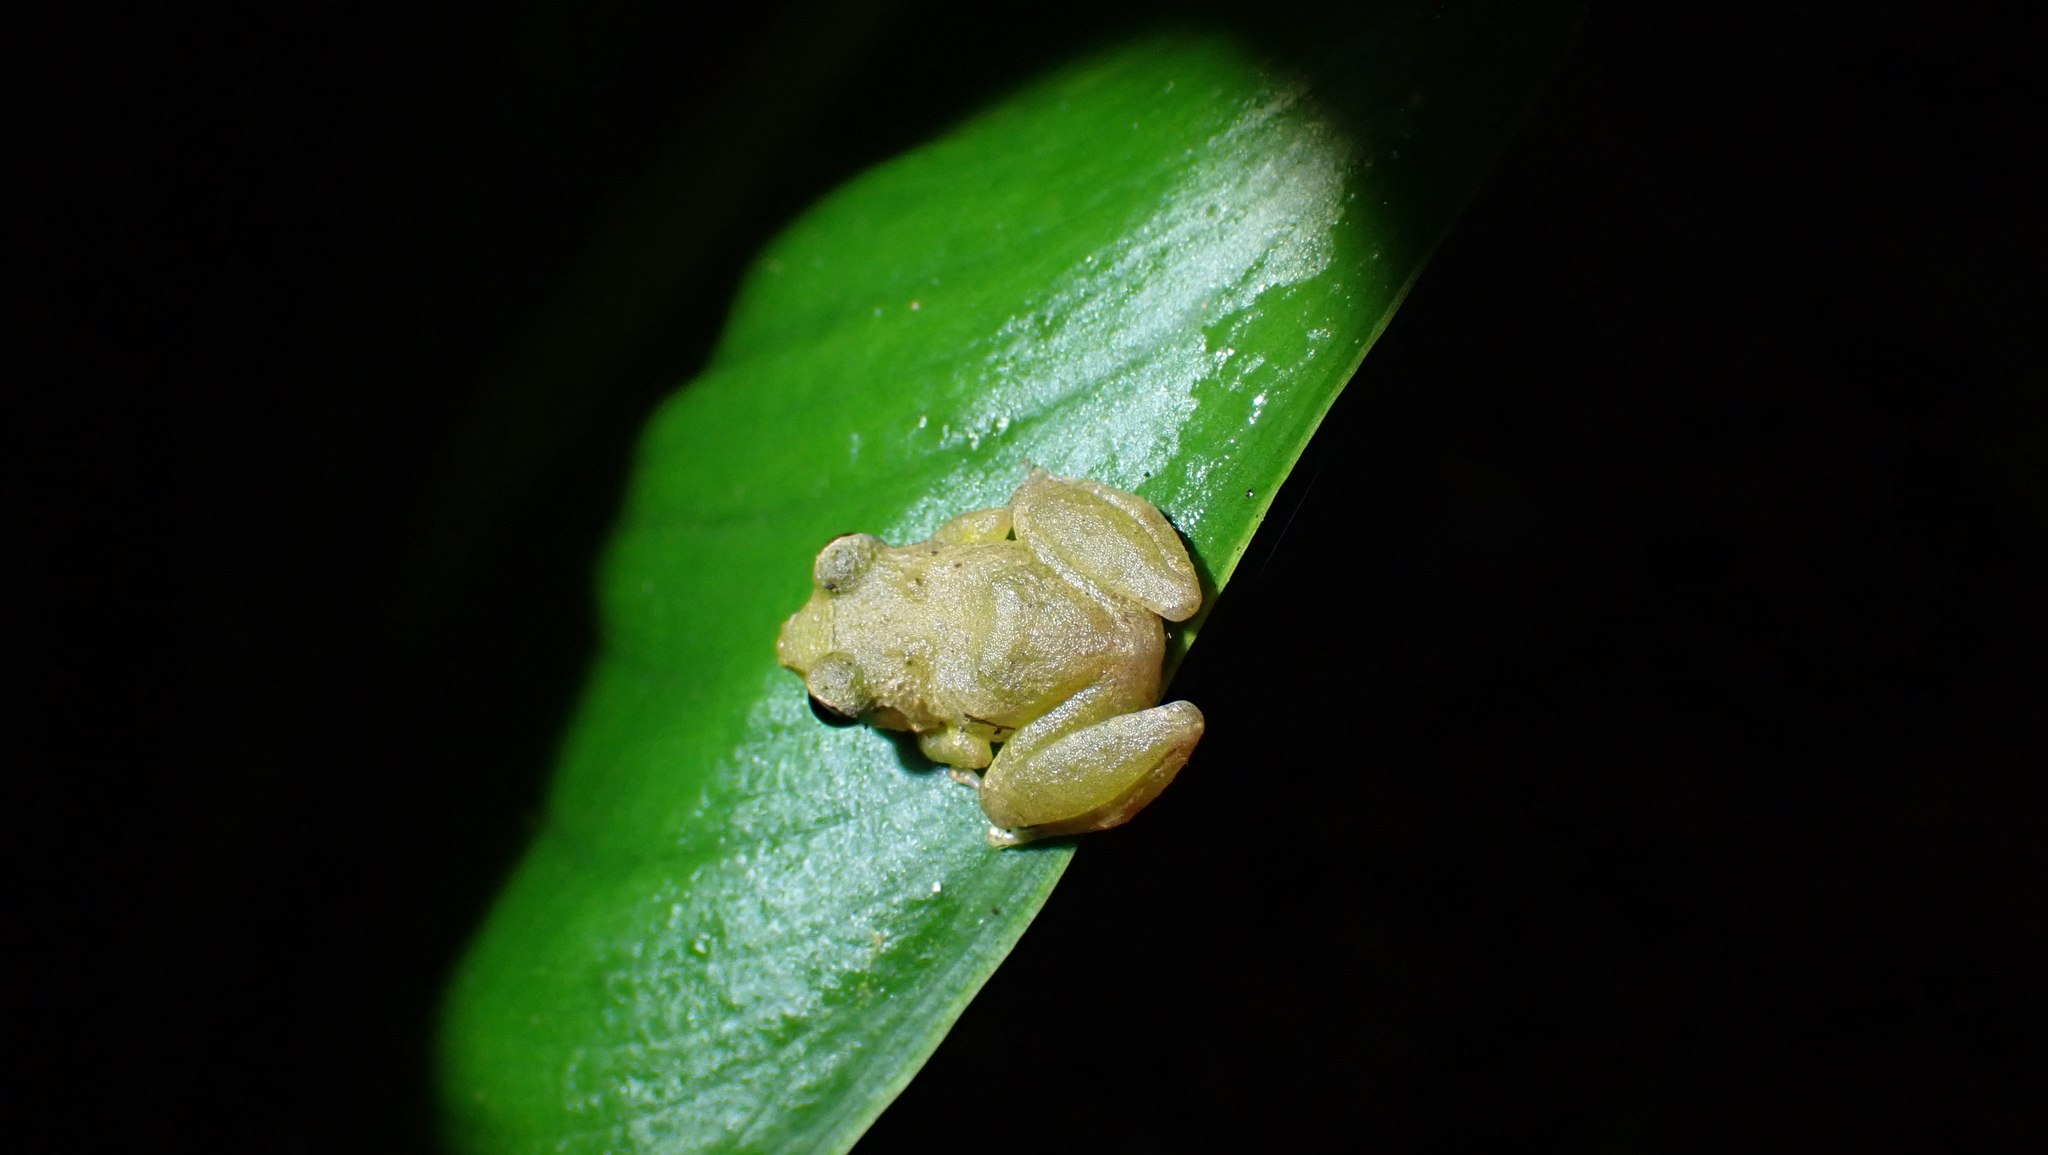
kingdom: Animalia
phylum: Chordata
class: Amphibia
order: Anura
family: Craugastoridae
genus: Pristimantis
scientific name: Pristimantis ridens
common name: Rio san juan robber frog
